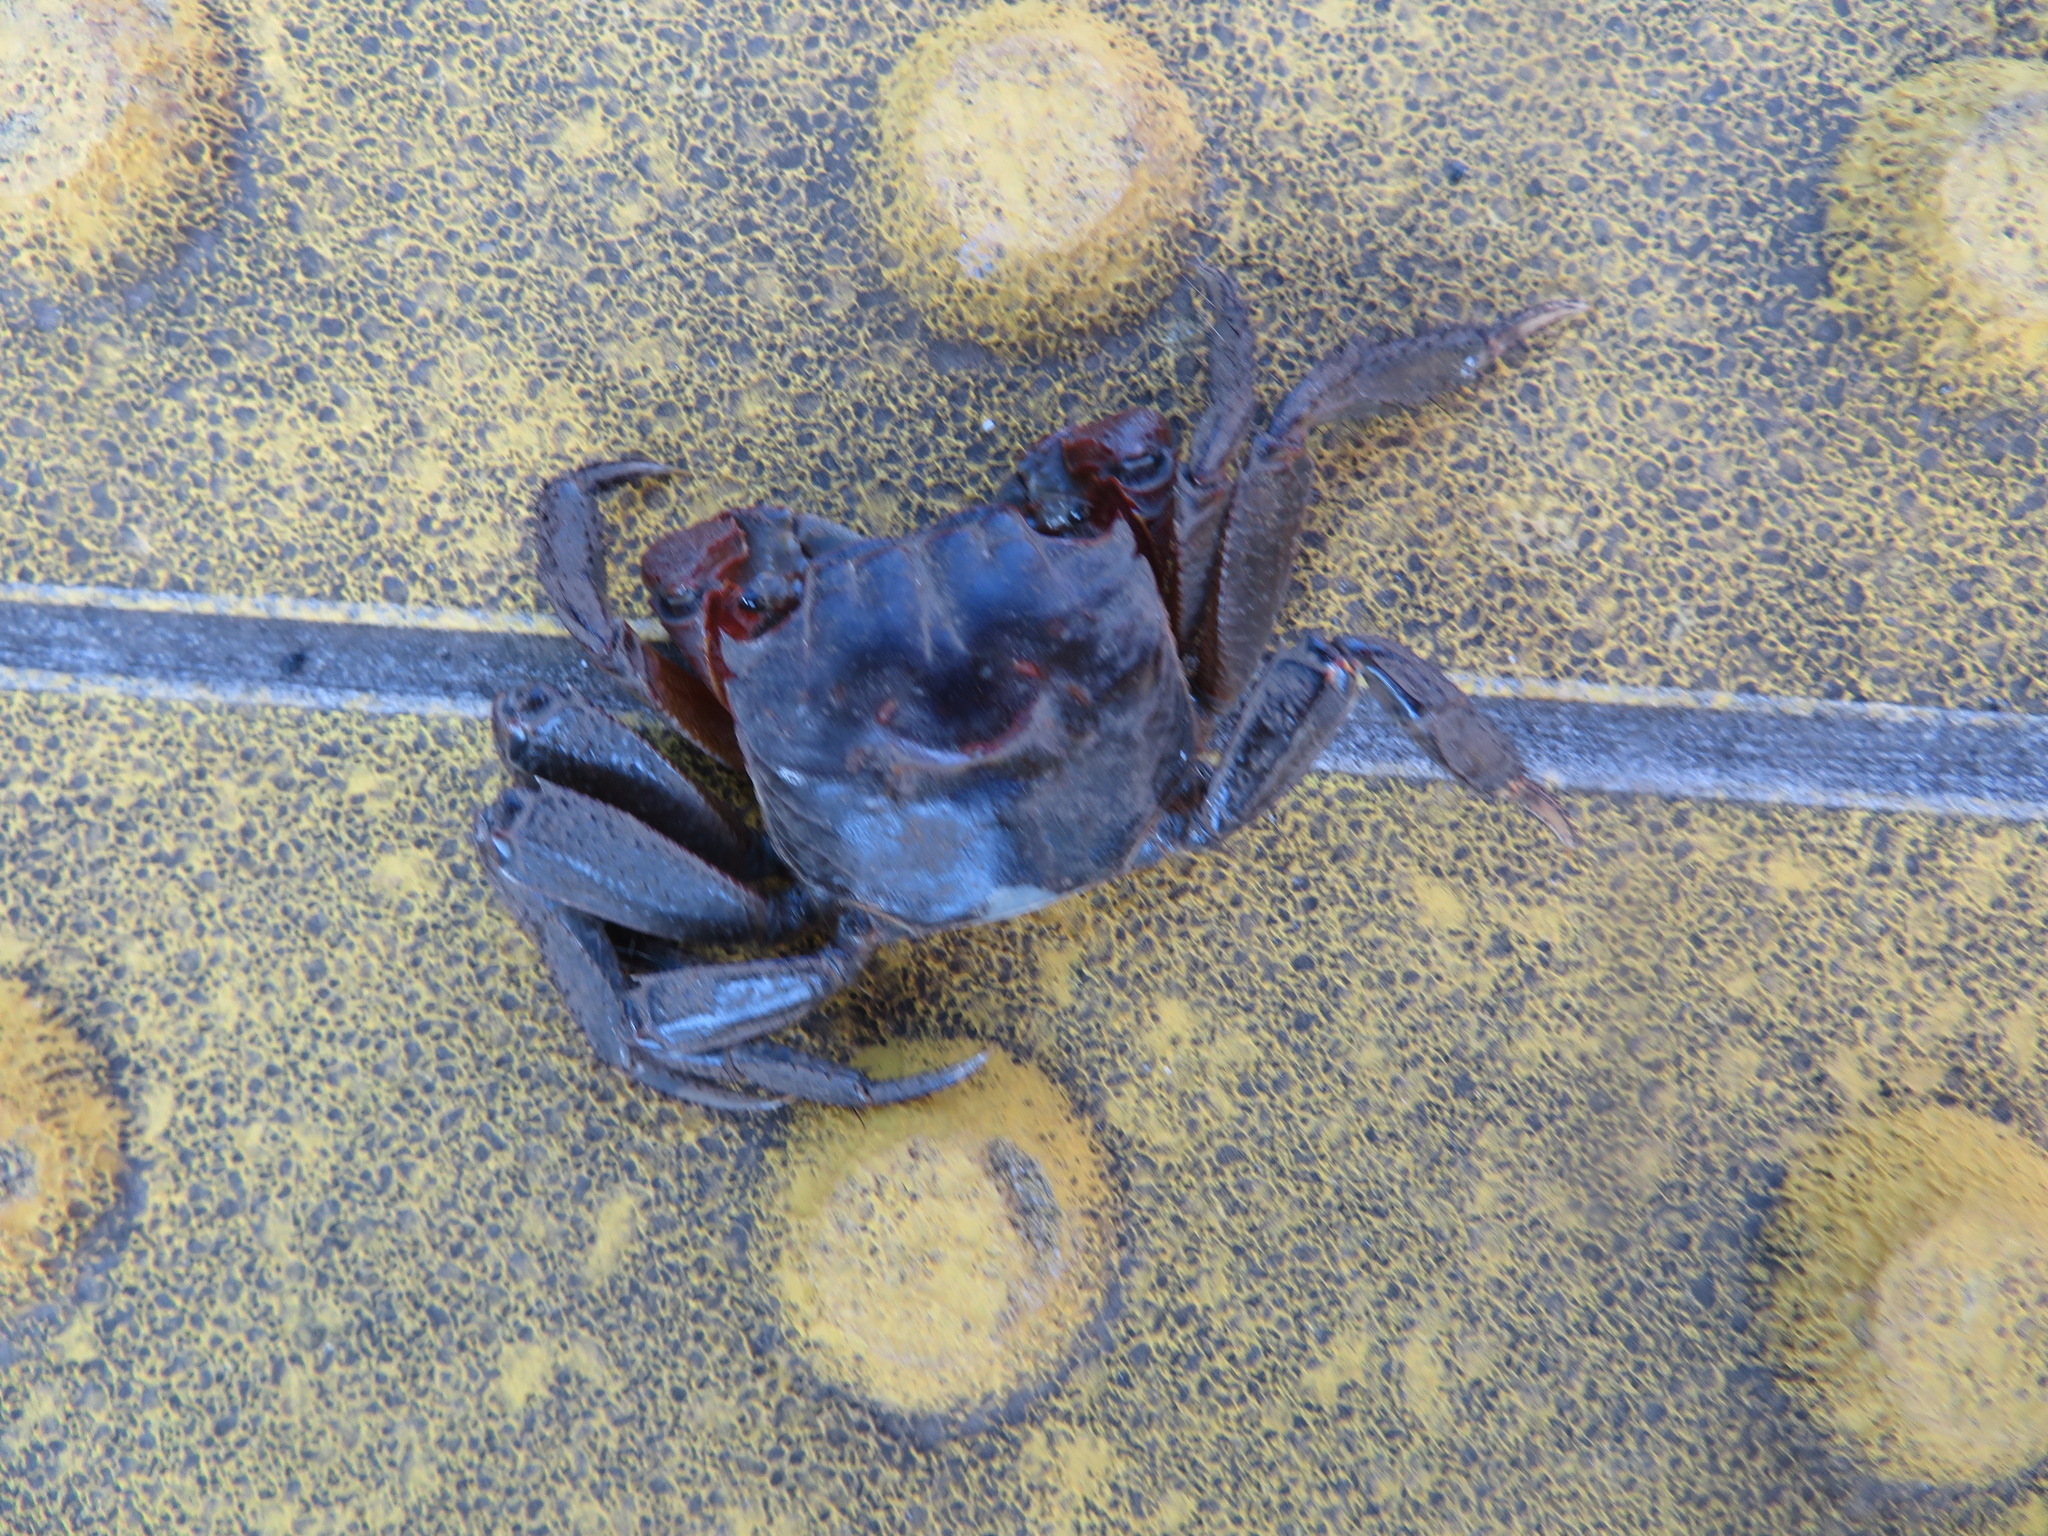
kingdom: Animalia
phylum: Arthropoda
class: Malacostraca
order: Decapoda
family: Sesarmidae
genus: Orisarma
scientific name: Orisarma intermedium
